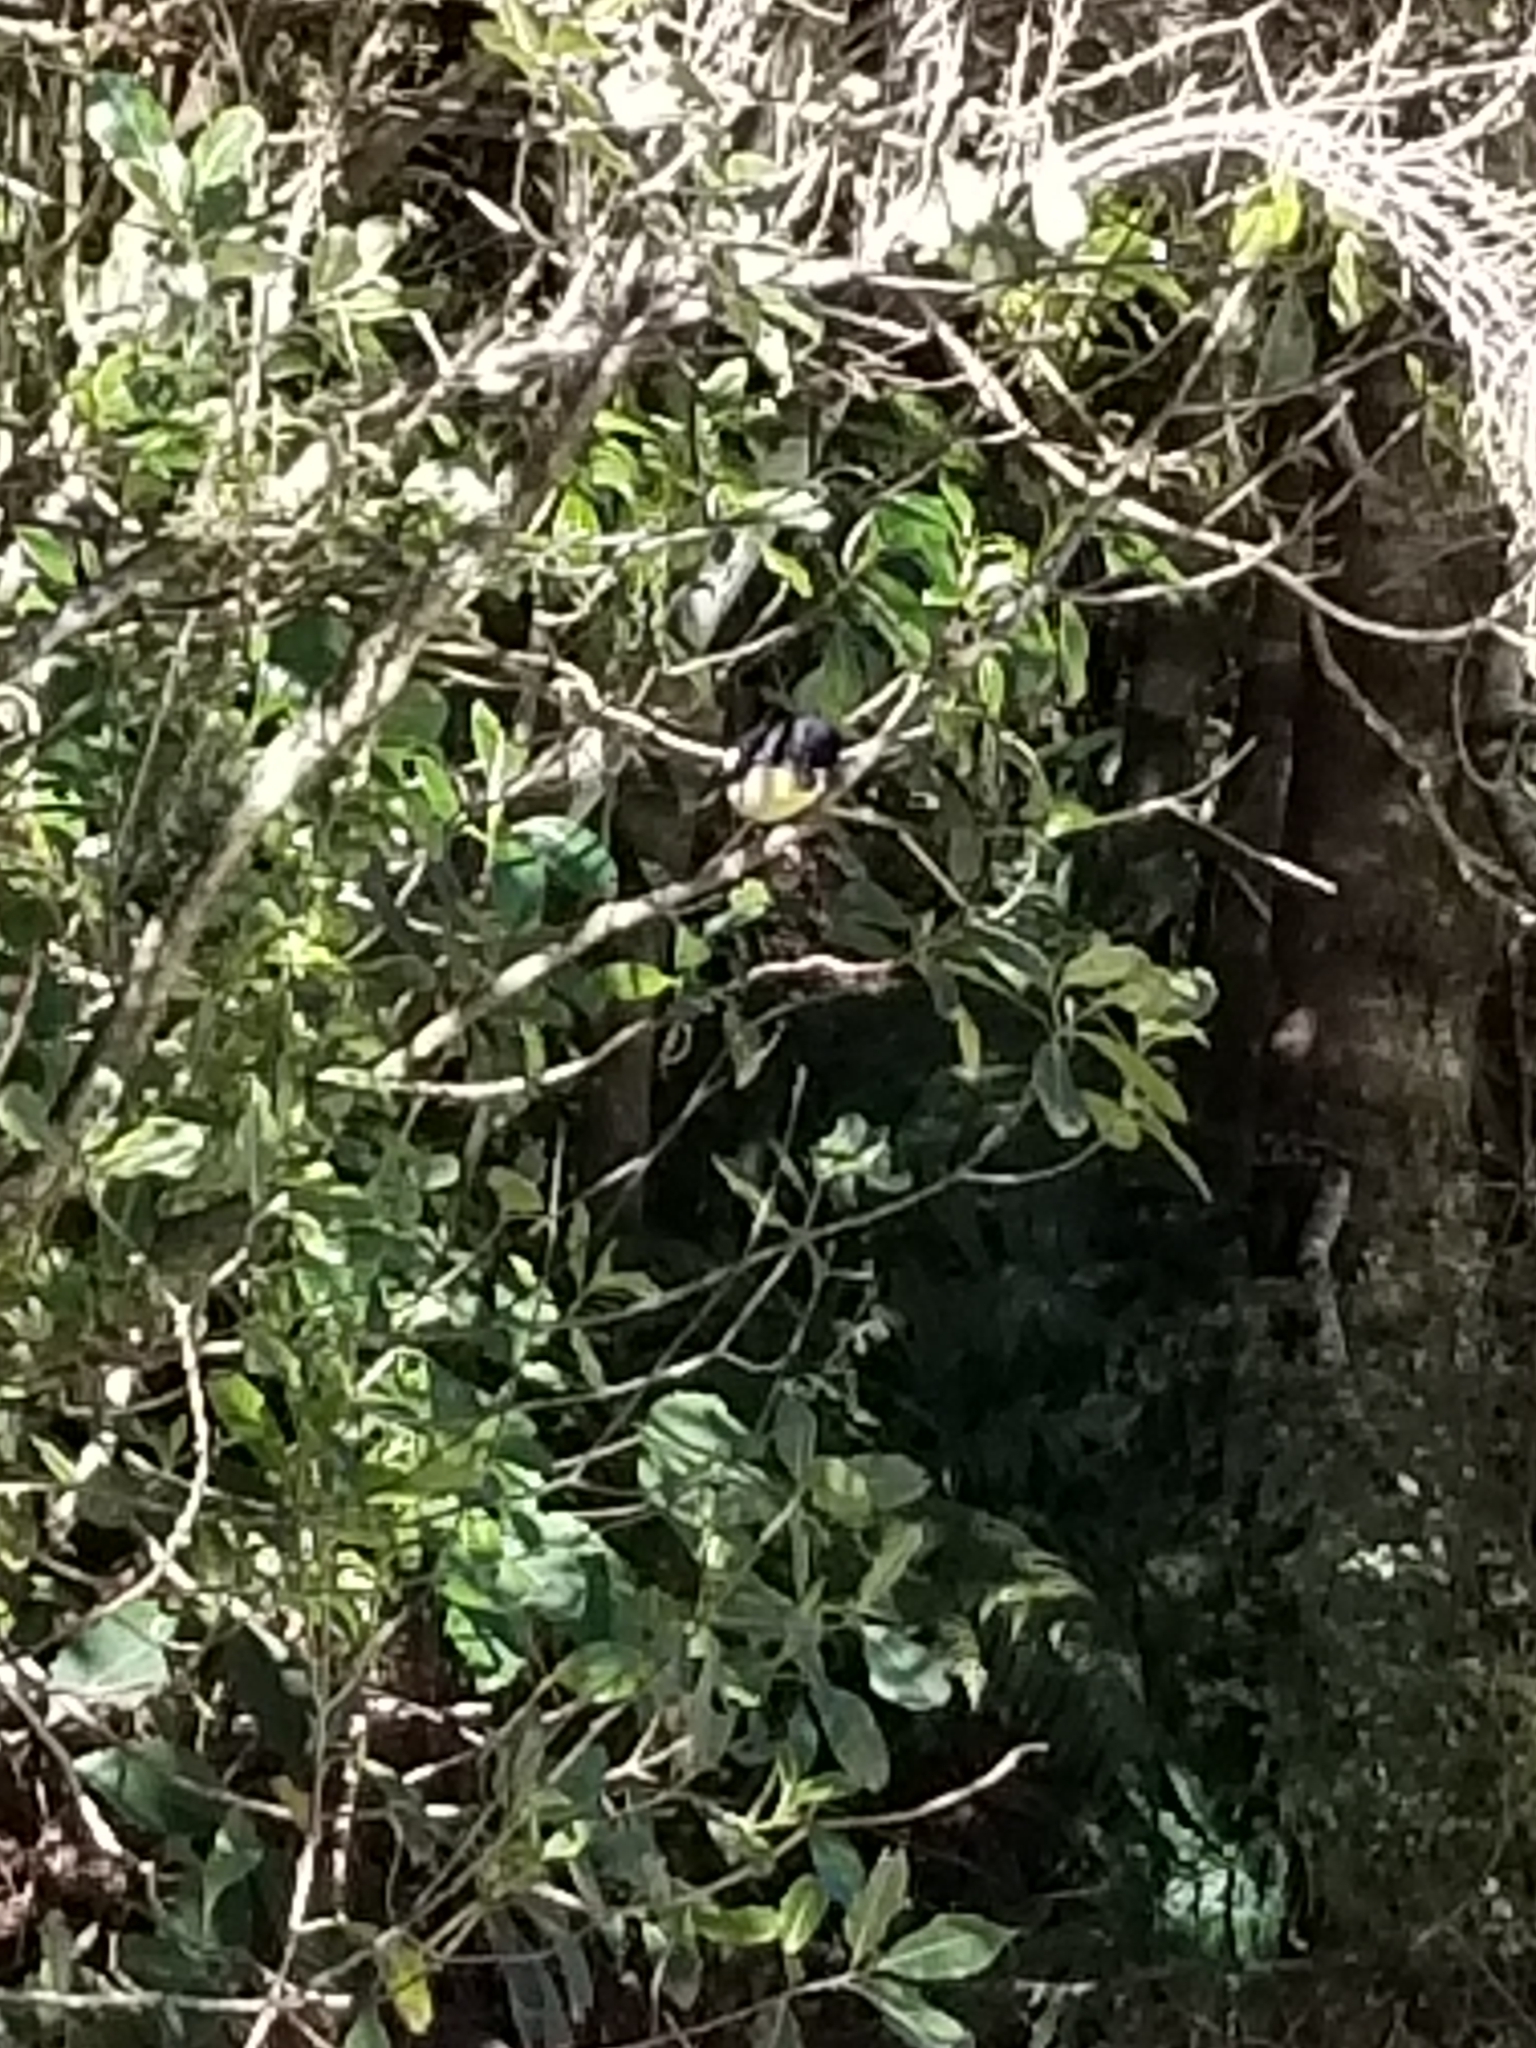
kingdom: Animalia
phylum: Chordata
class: Aves
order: Passeriformes
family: Petroicidae
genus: Petroica
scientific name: Petroica macrocephala
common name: Tomtit
